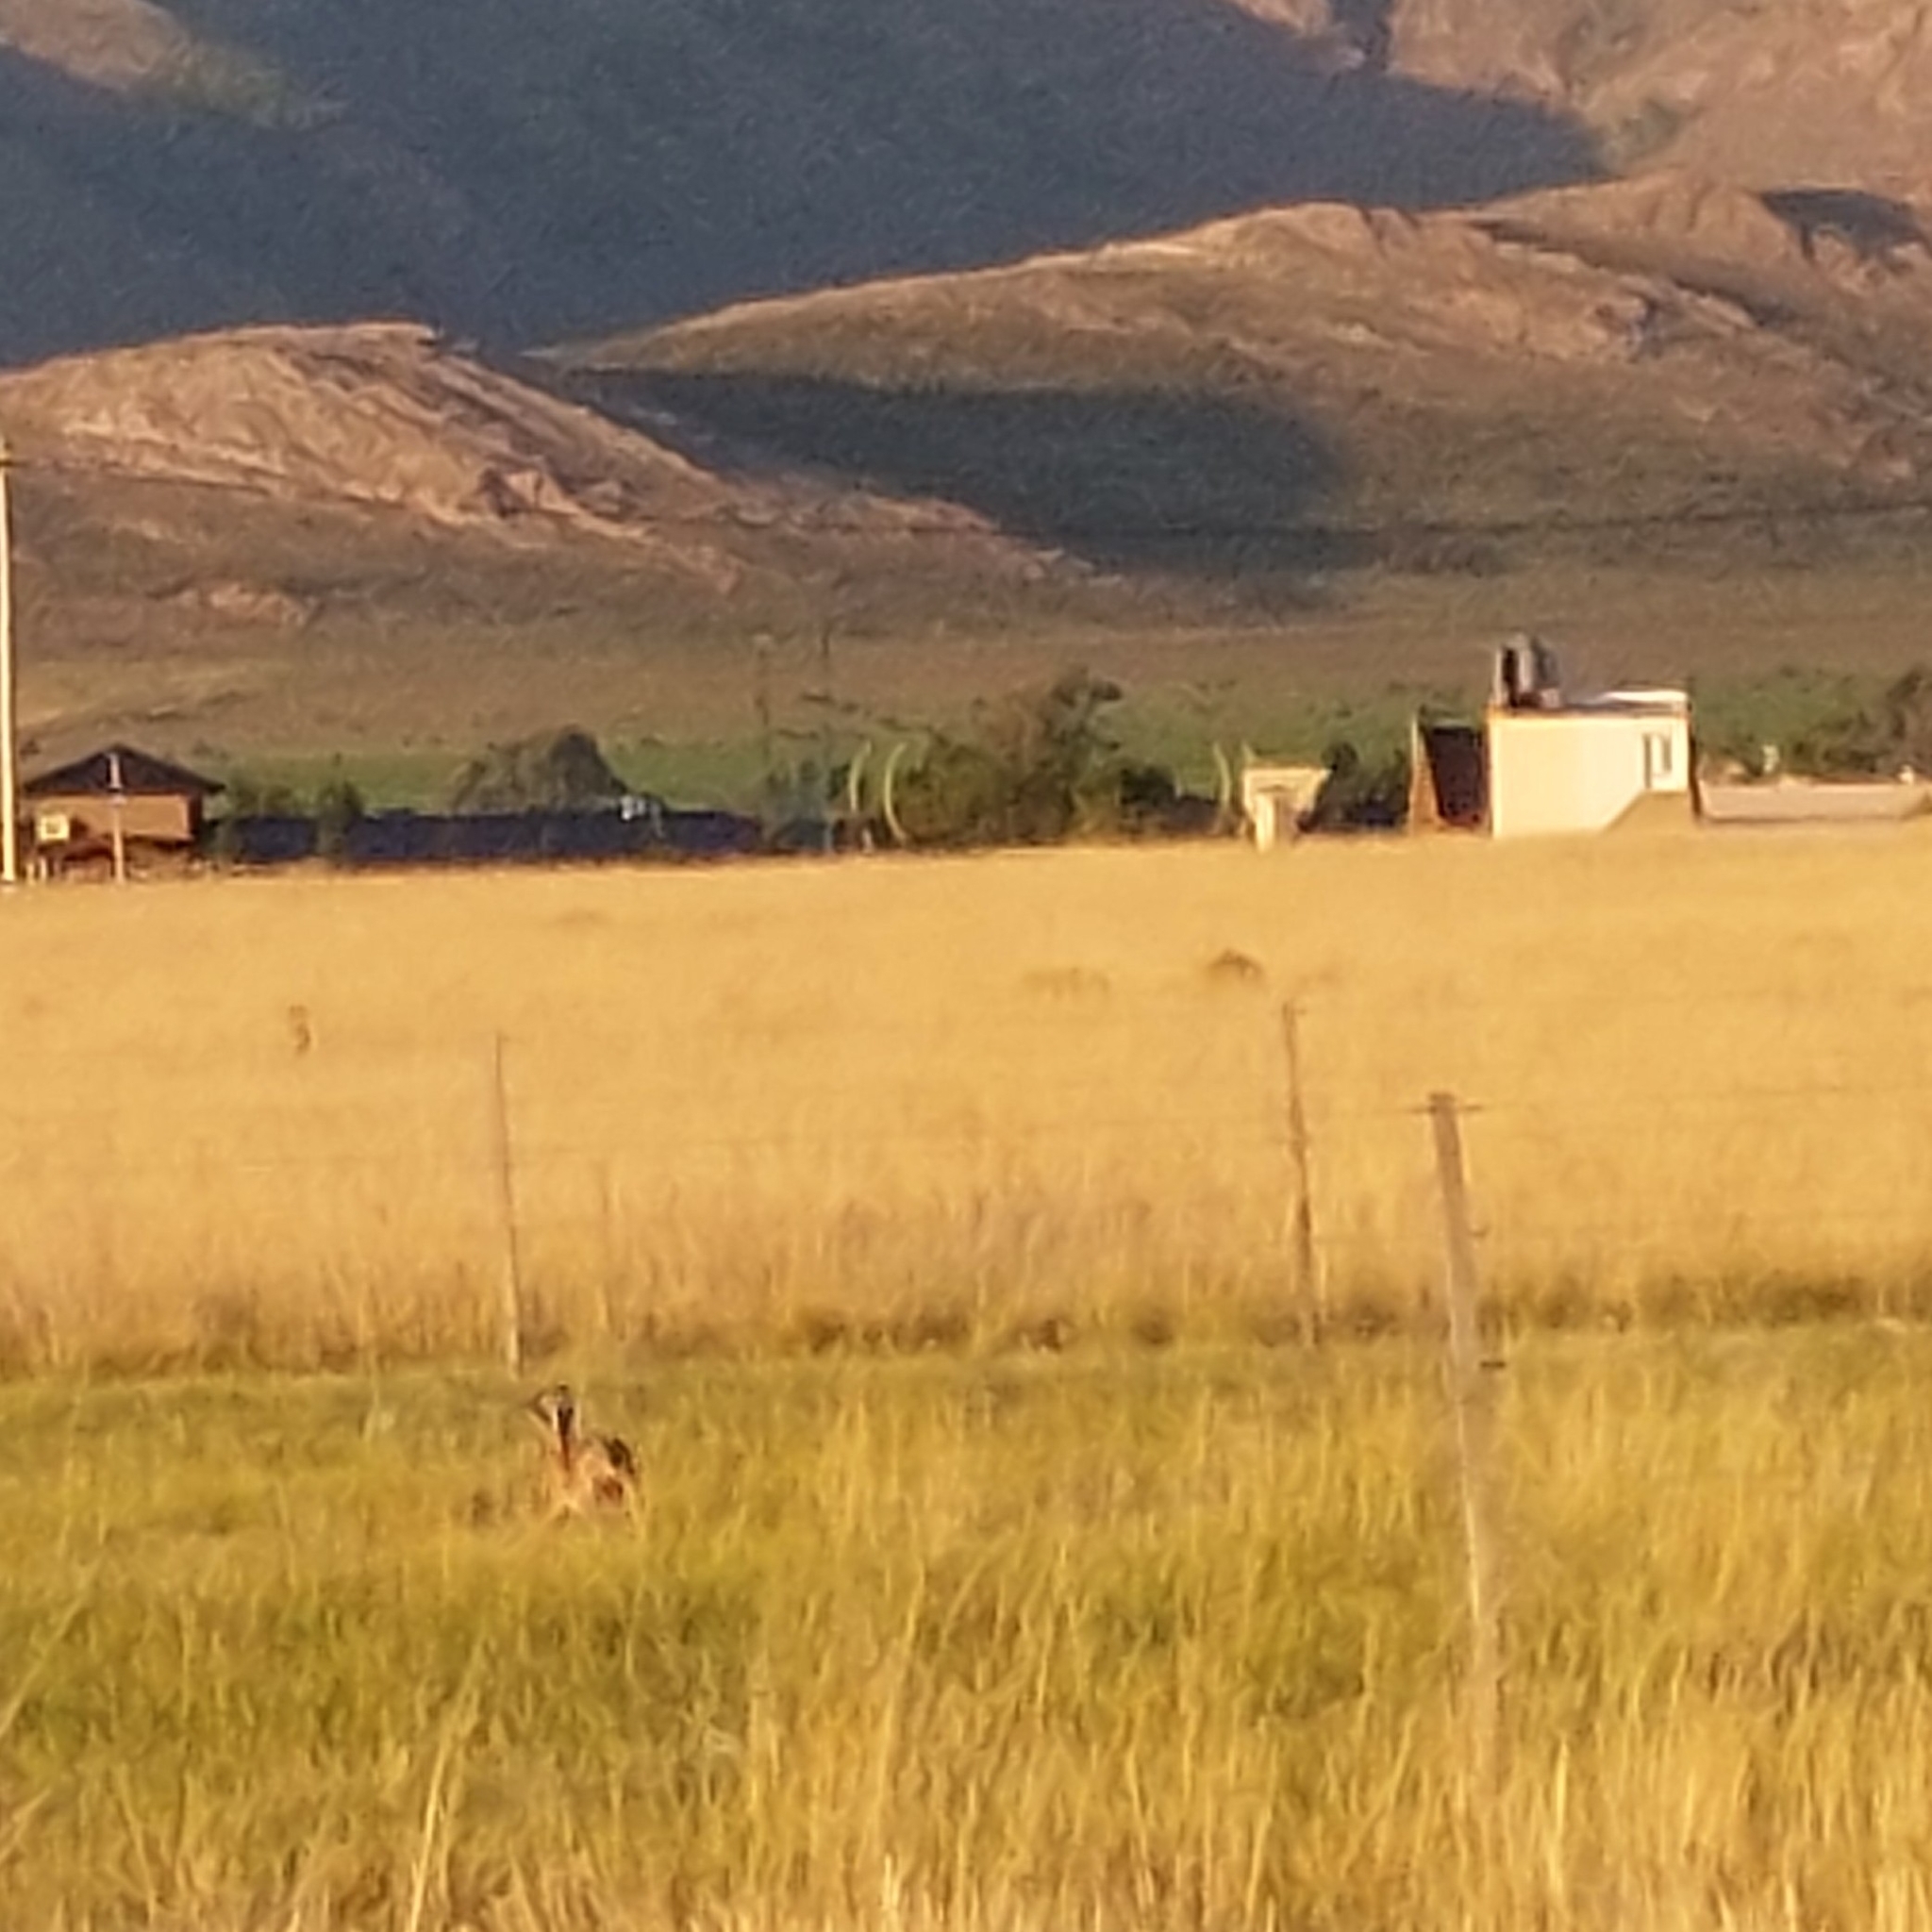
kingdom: Animalia
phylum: Chordata
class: Mammalia
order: Lagomorpha
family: Leporidae
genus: Lepus
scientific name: Lepus europaeus
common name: European hare
